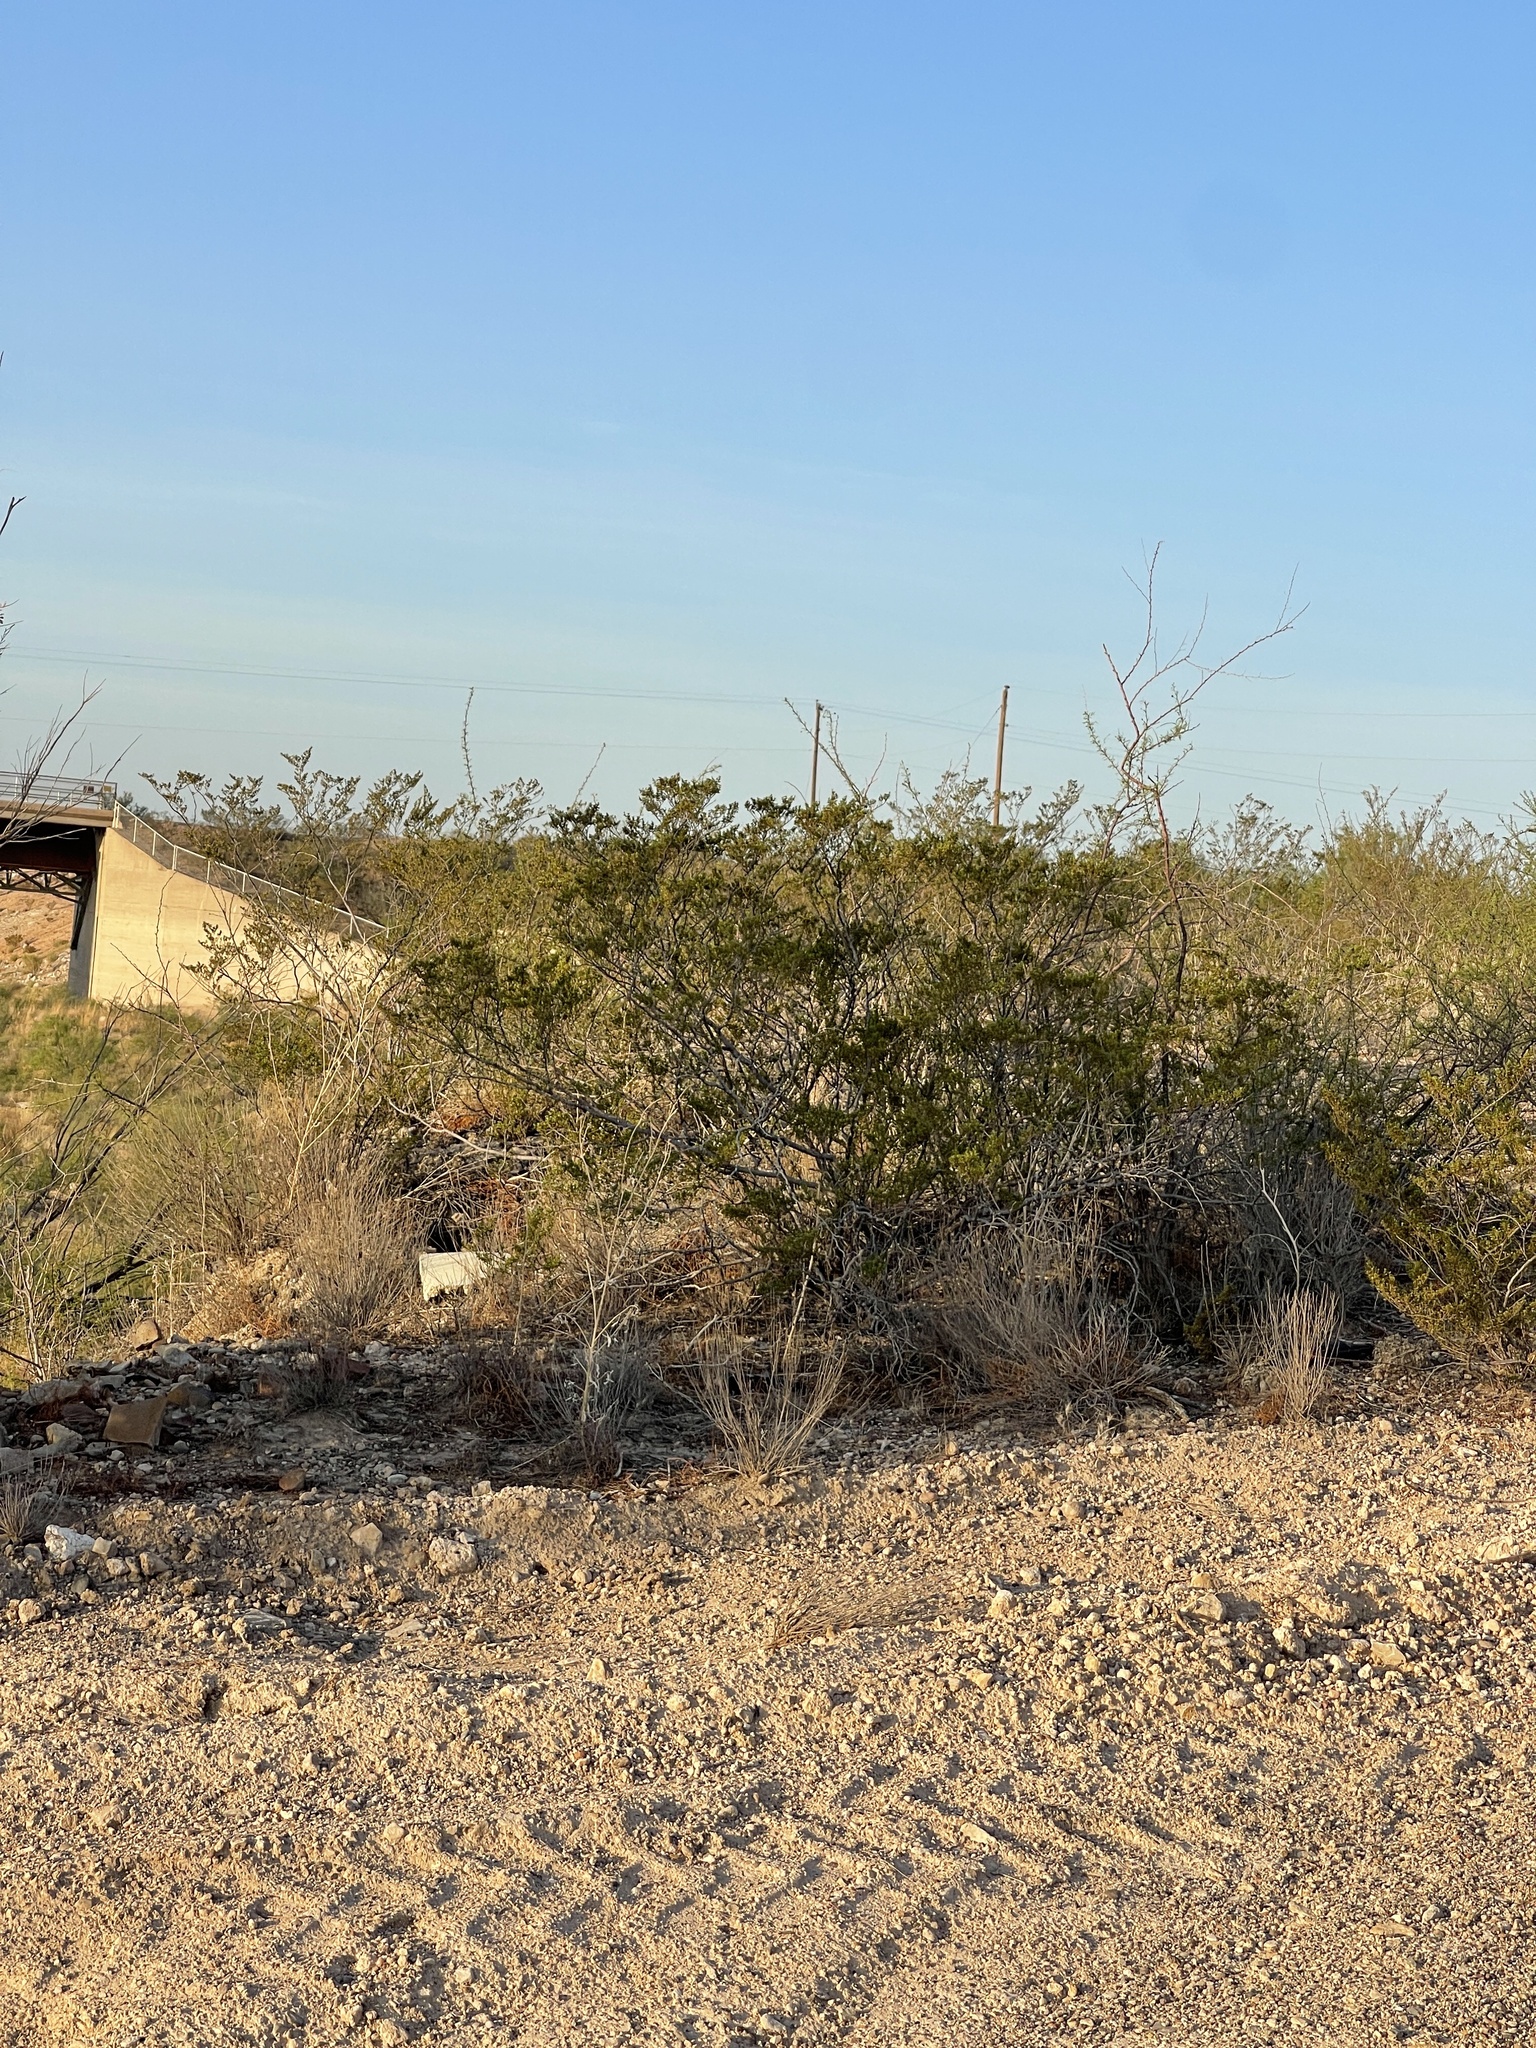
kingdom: Plantae
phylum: Tracheophyta
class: Magnoliopsida
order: Zygophyllales
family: Zygophyllaceae
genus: Larrea
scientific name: Larrea tridentata
